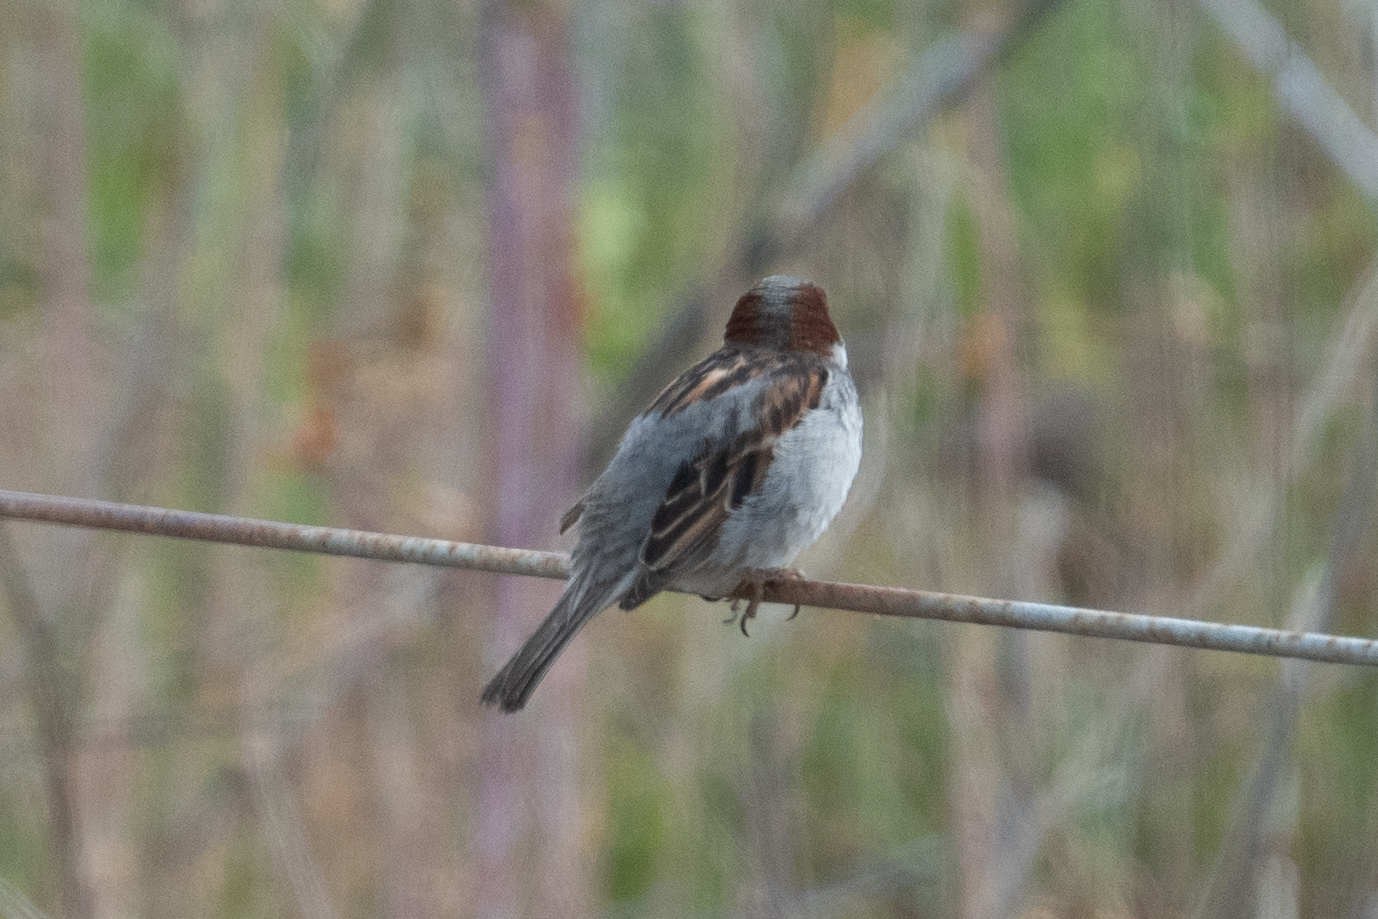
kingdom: Animalia
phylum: Chordata
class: Aves
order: Passeriformes
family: Passeridae
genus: Passer
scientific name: Passer domesticus
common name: House sparrow
